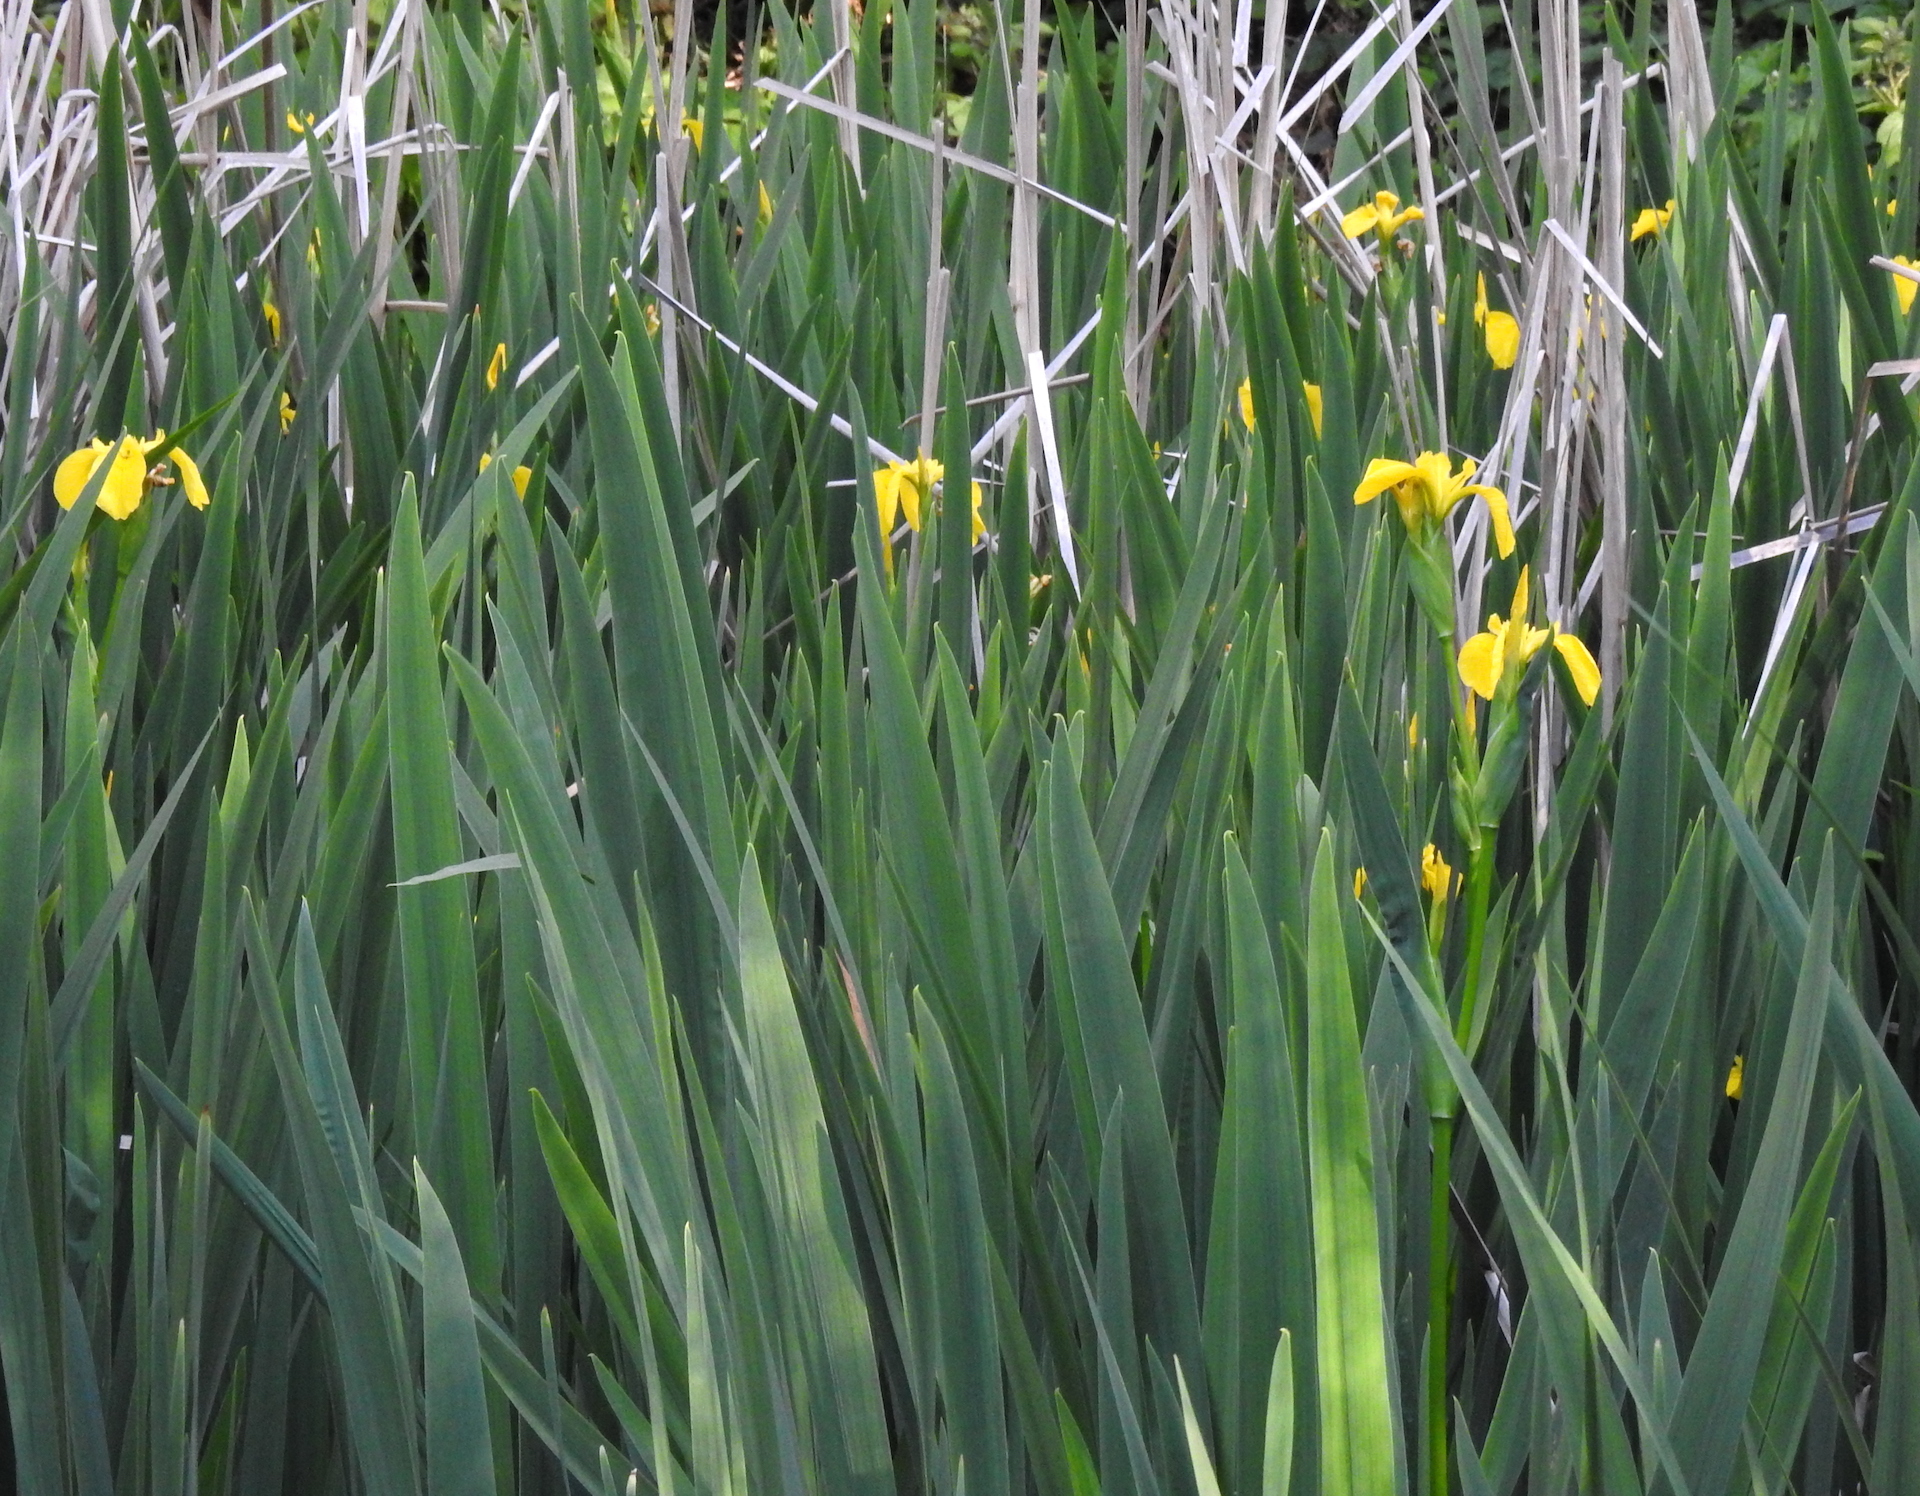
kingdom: Plantae
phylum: Tracheophyta
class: Liliopsida
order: Asparagales
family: Iridaceae
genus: Iris
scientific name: Iris pseudacorus
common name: Yellow flag
